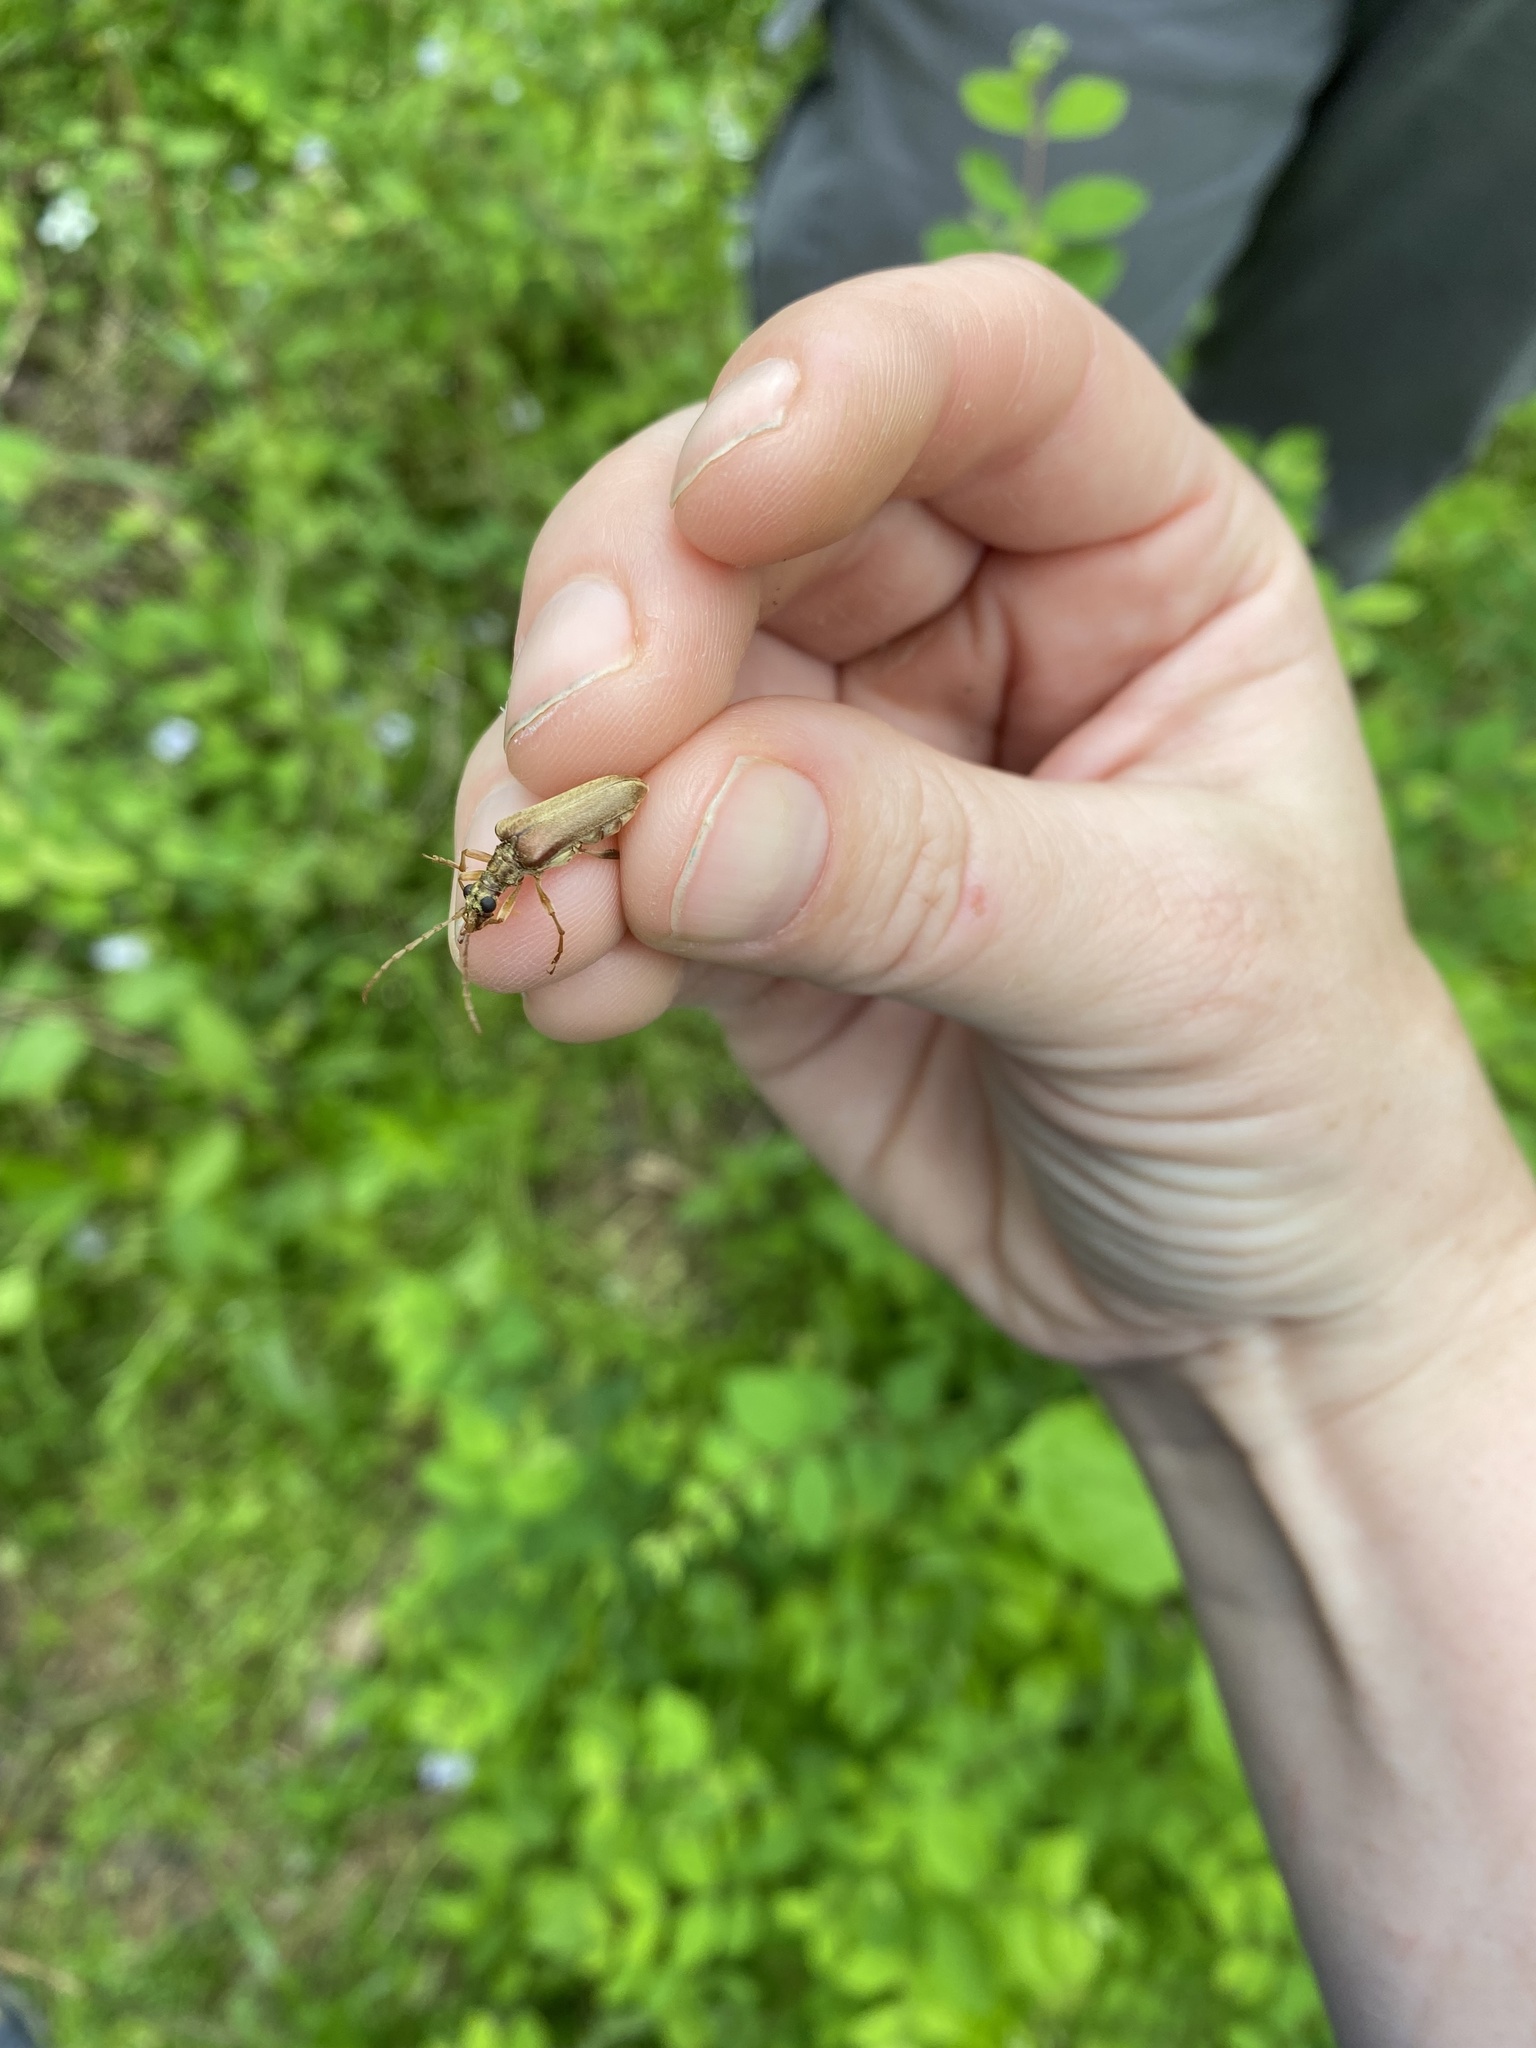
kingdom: Animalia
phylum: Arthropoda
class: Insecta
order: Coleoptera
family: Cerambycidae
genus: Stenocorus
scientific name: Stenocorus cinnamopterus
